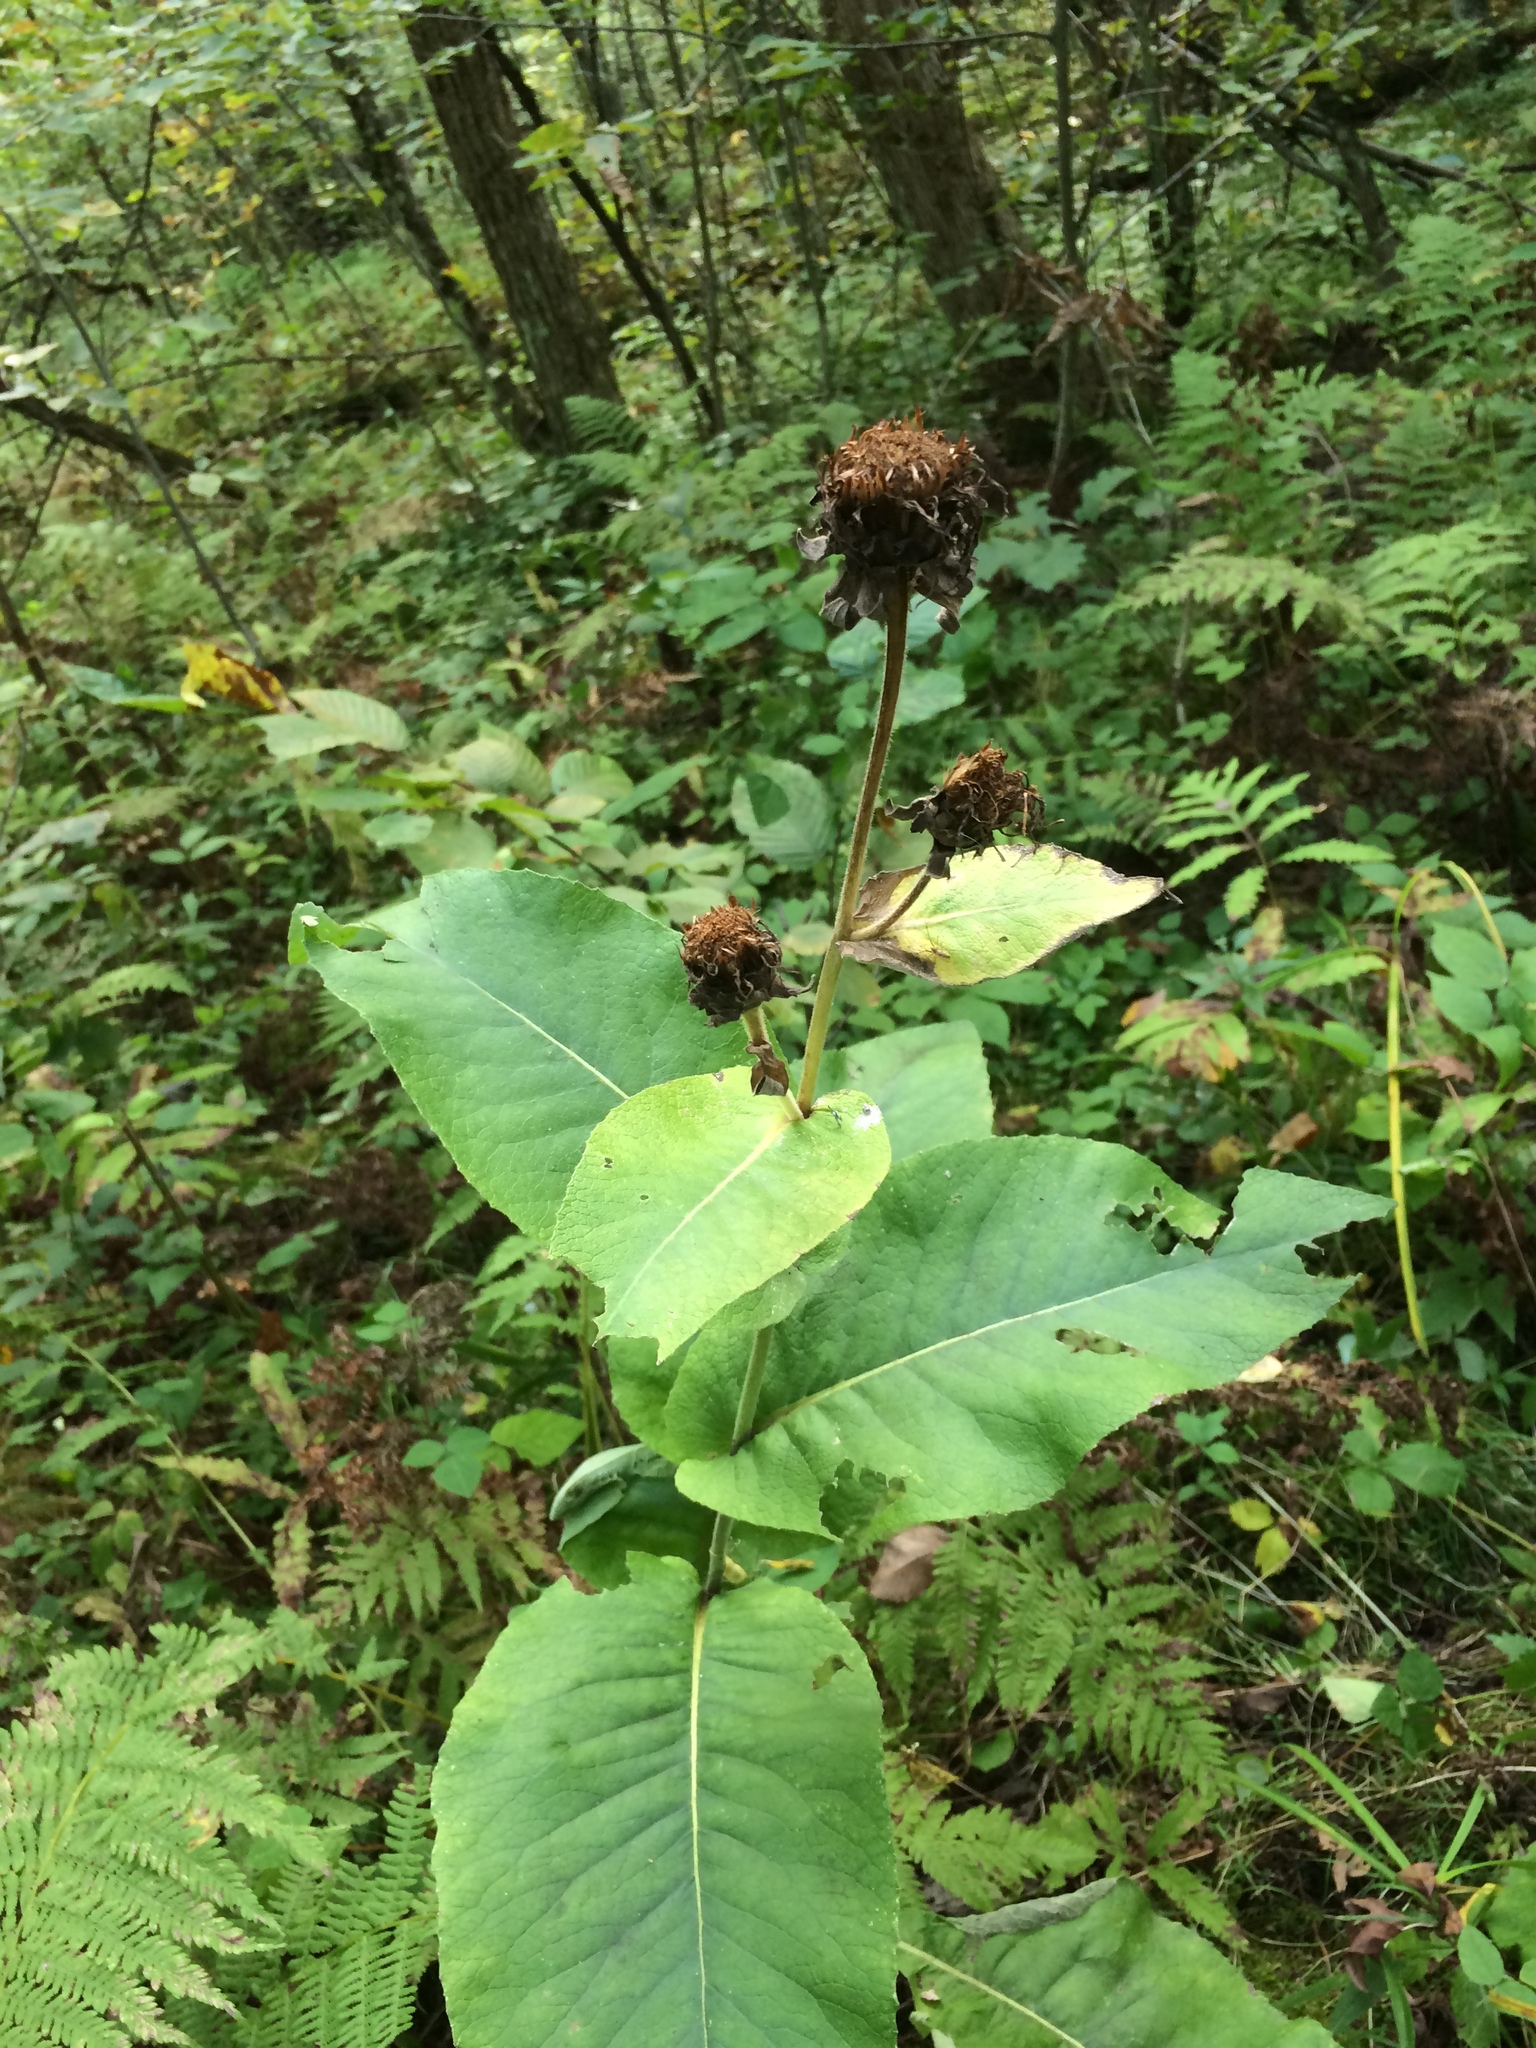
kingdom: Plantae
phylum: Tracheophyta
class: Magnoliopsida
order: Asterales
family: Asteraceae
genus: Inula
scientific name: Inula helenium
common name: Elecampane
